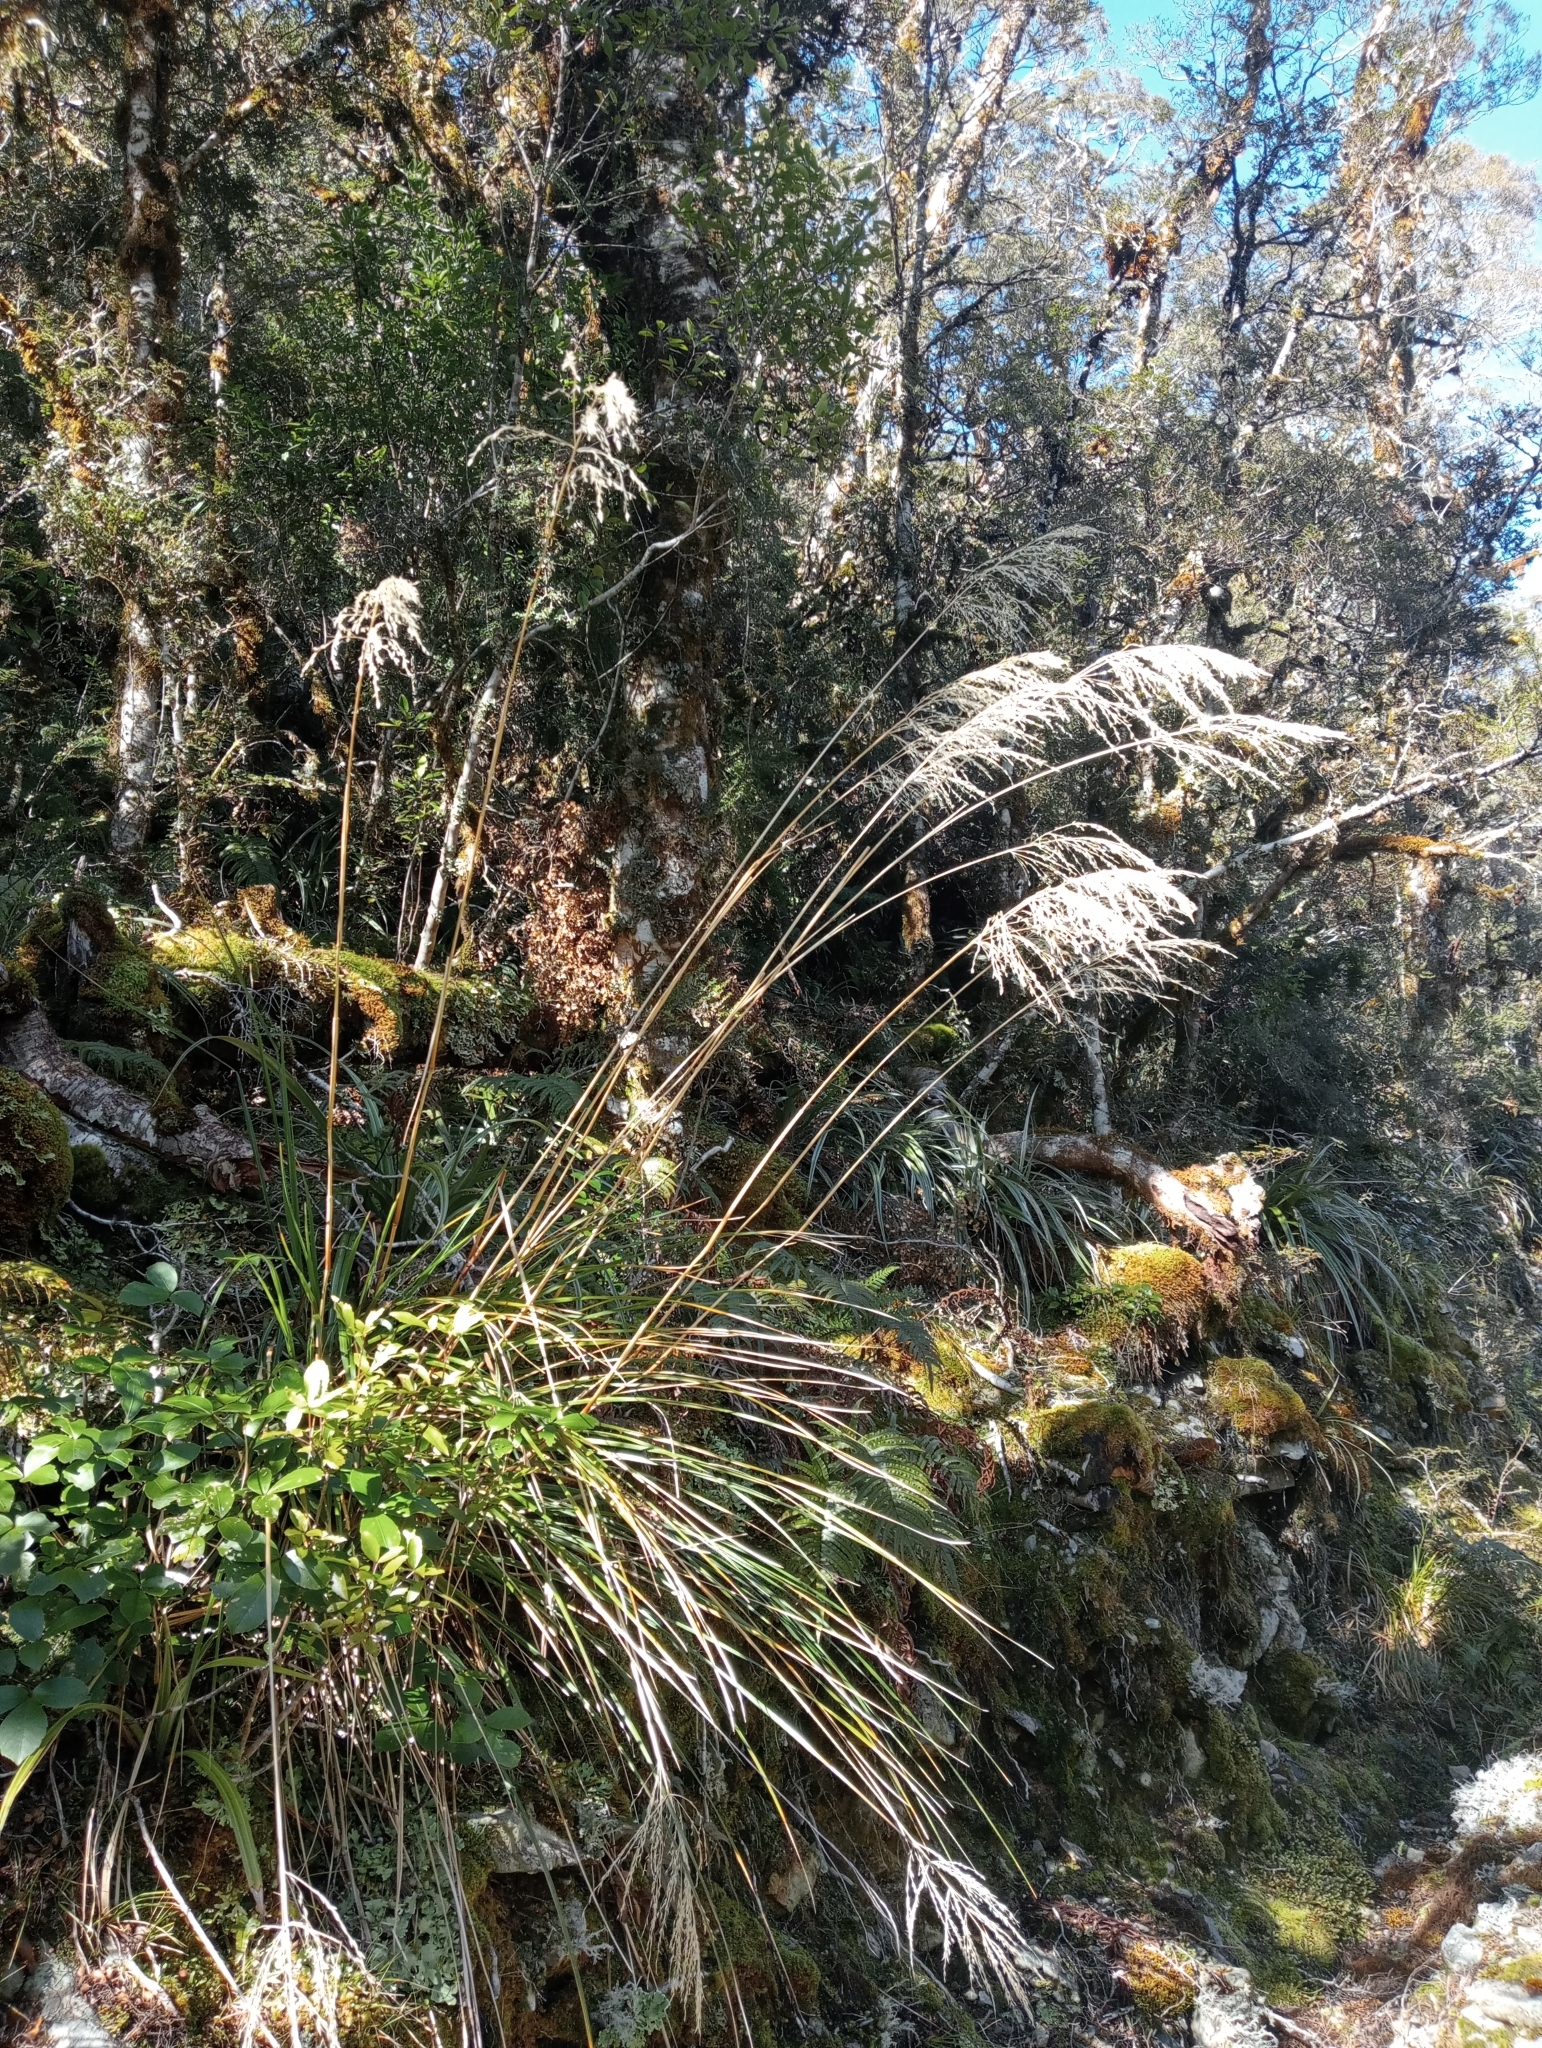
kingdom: Plantae
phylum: Tracheophyta
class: Liliopsida
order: Poales
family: Poaceae
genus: Chionochloa
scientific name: Chionochloa conspicua
